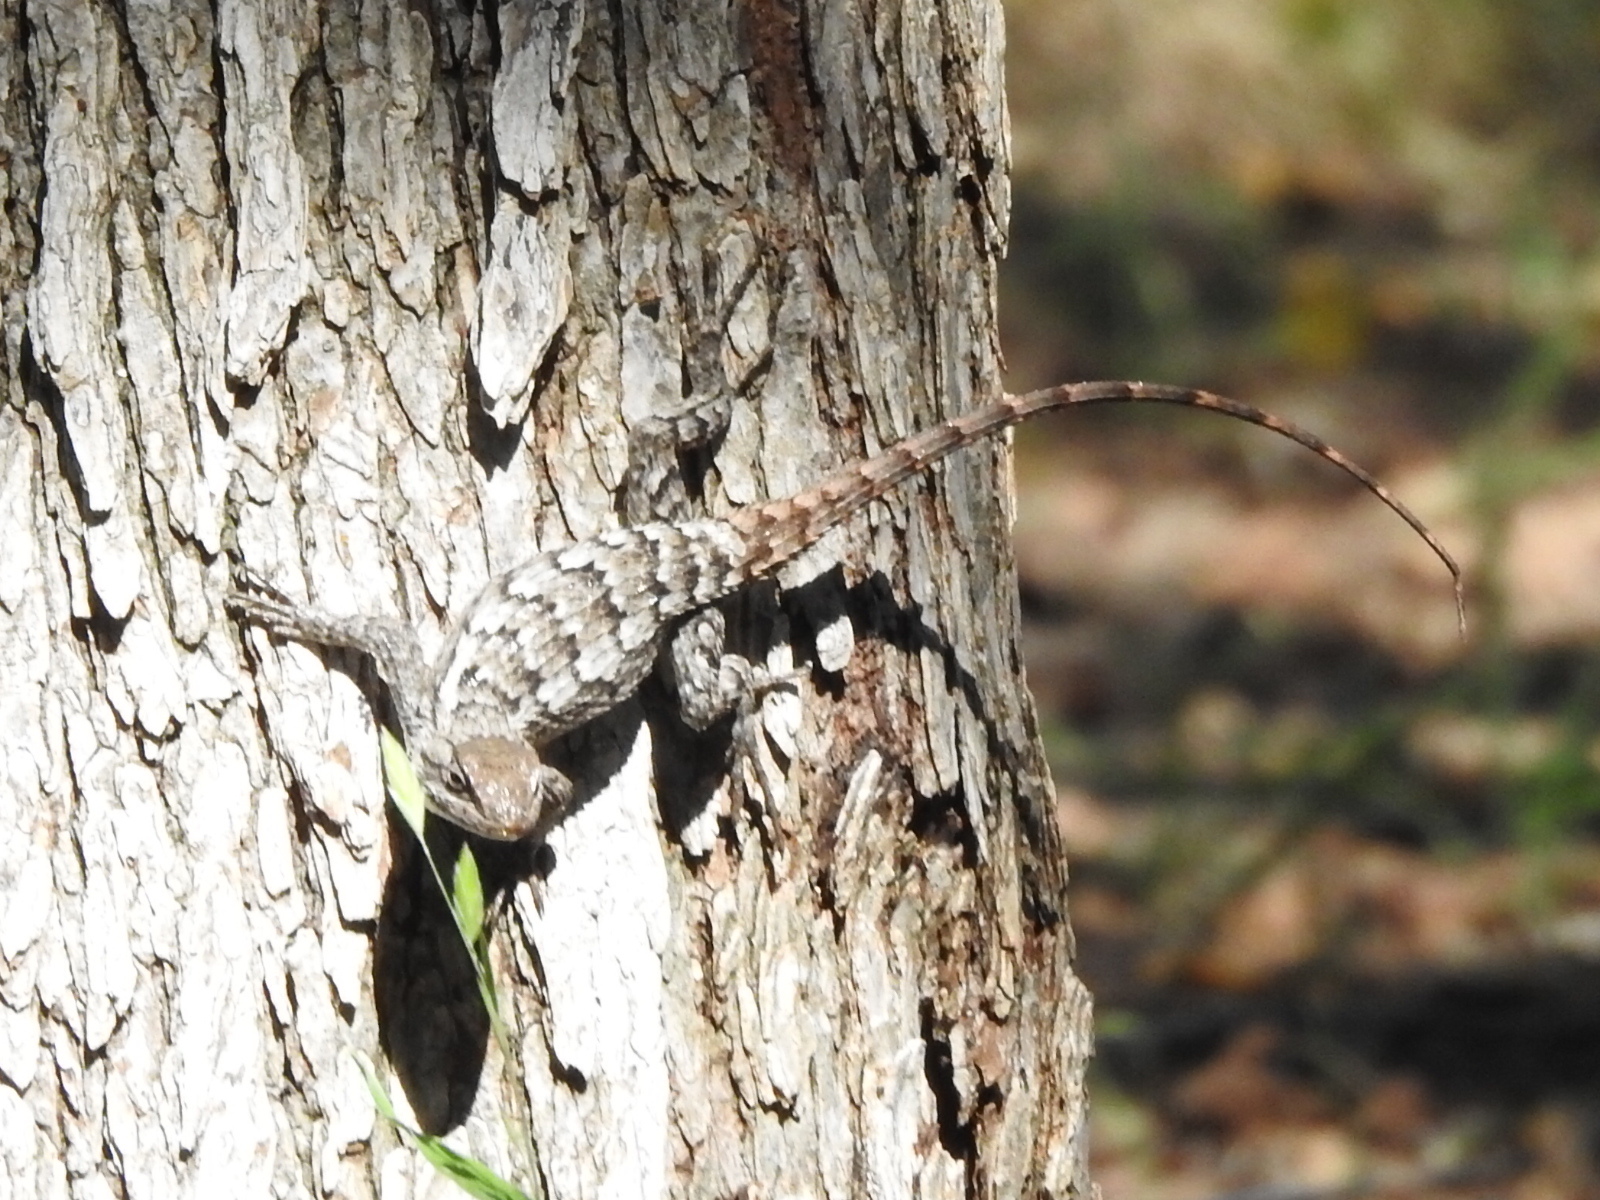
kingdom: Animalia
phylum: Chordata
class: Squamata
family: Phrynosomatidae
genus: Sceloporus
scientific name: Sceloporus olivaceus
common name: Texas spiny lizard
